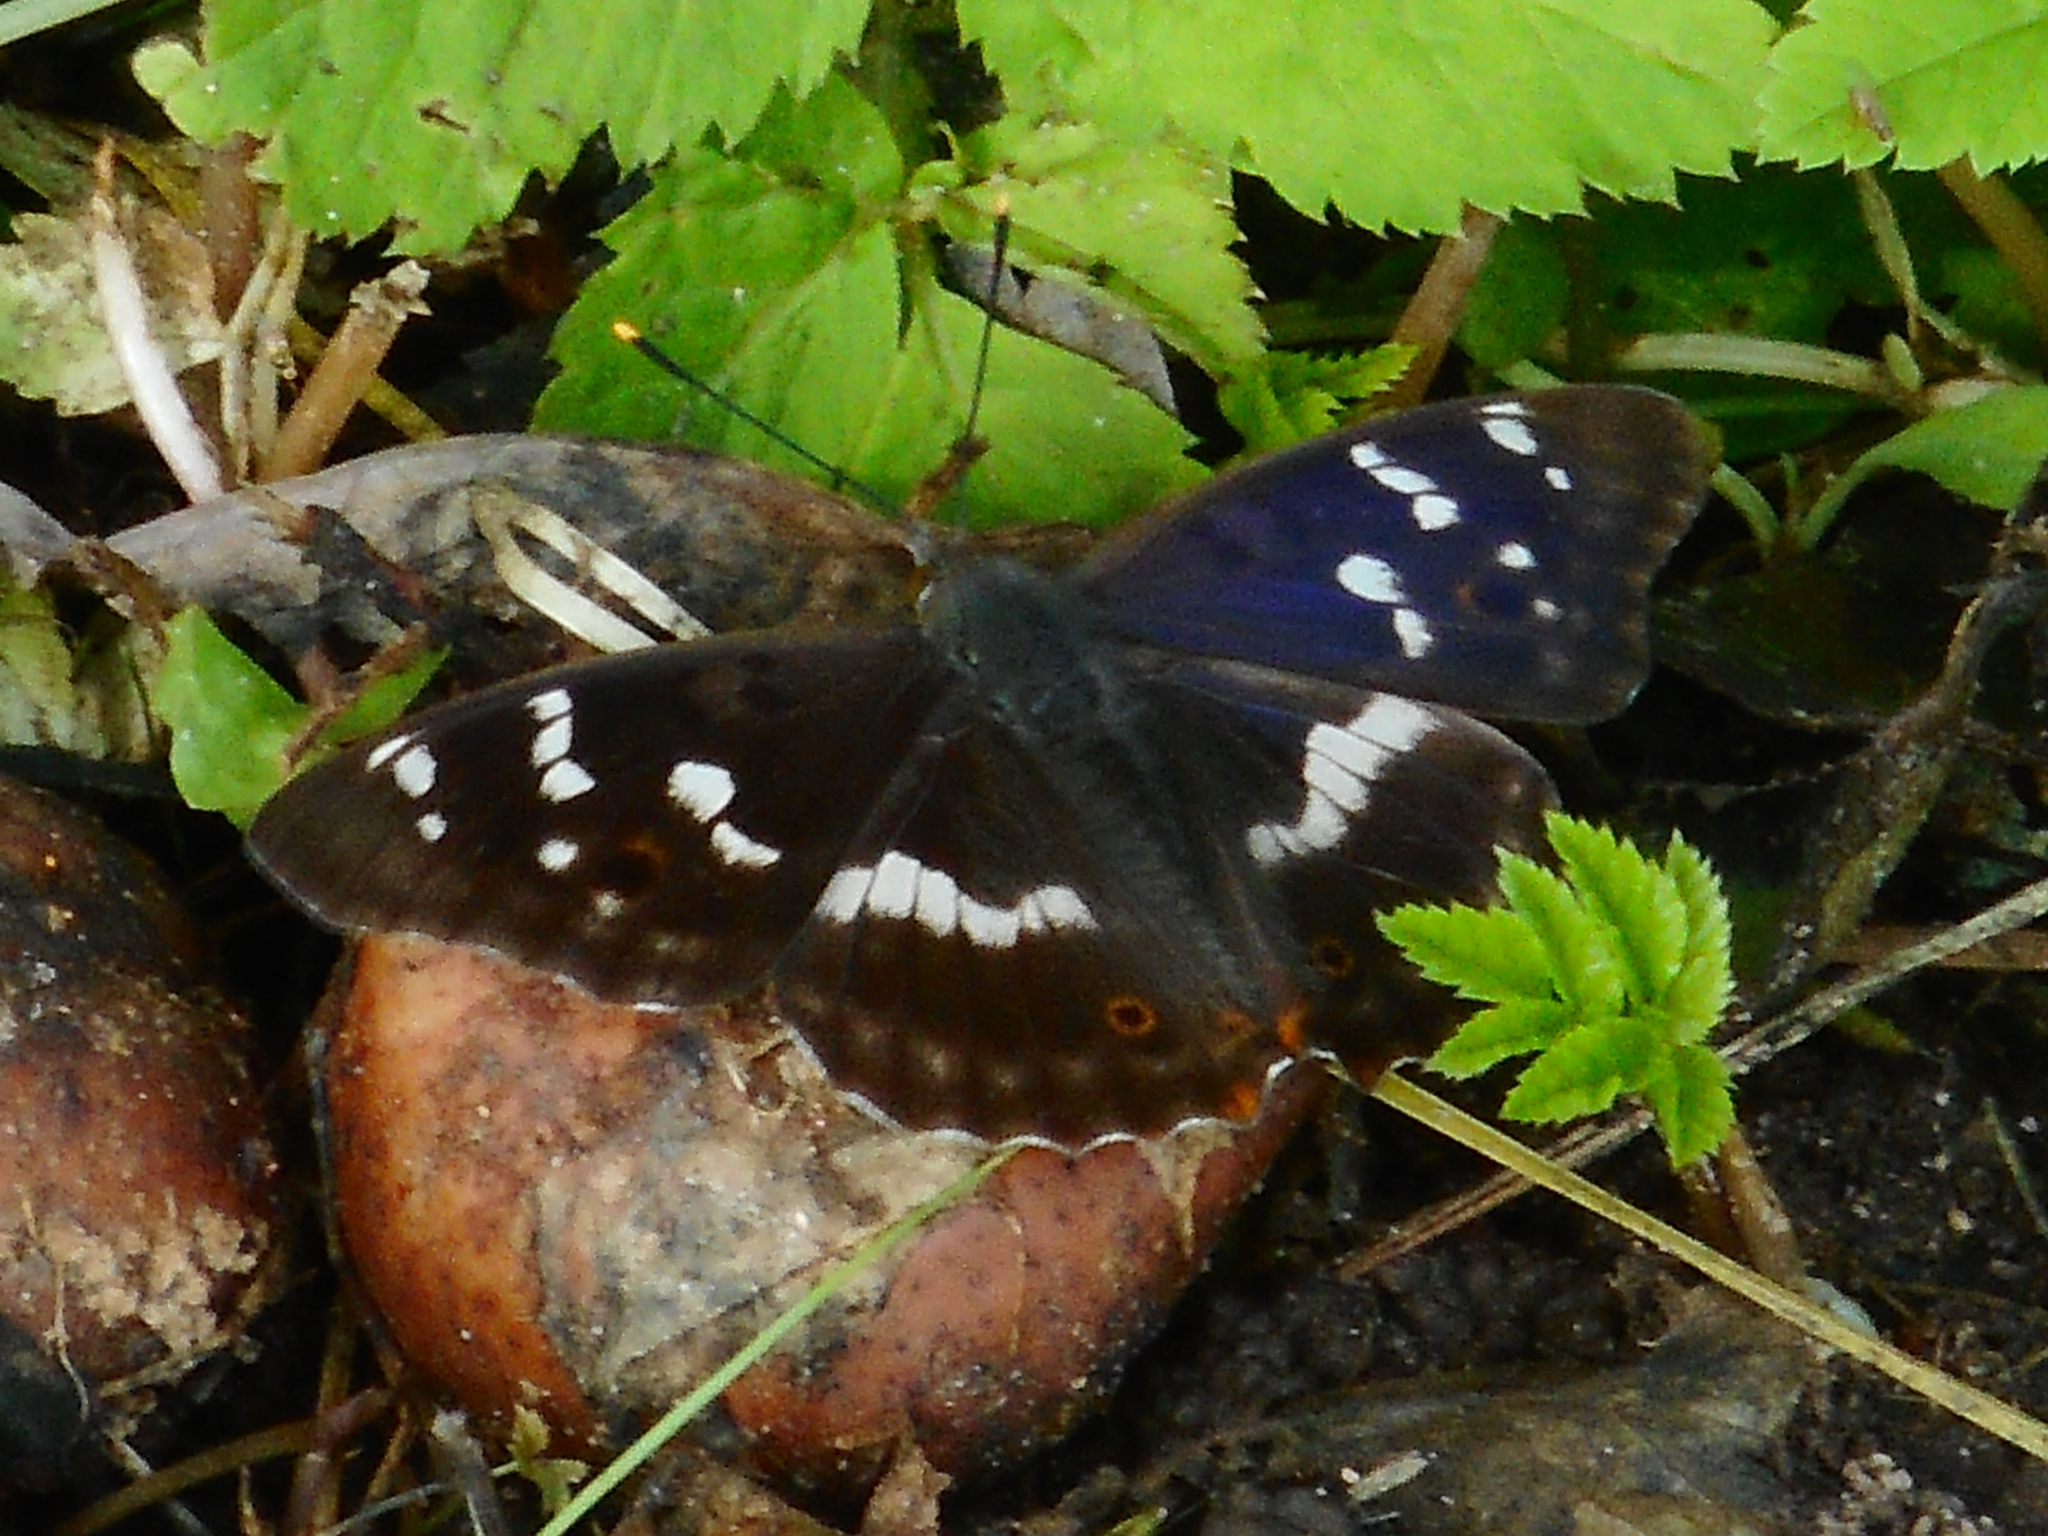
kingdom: Animalia
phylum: Arthropoda
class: Insecta
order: Lepidoptera
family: Nymphalidae
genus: Apatura
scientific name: Apatura ilia
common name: Lesser purple emperor
